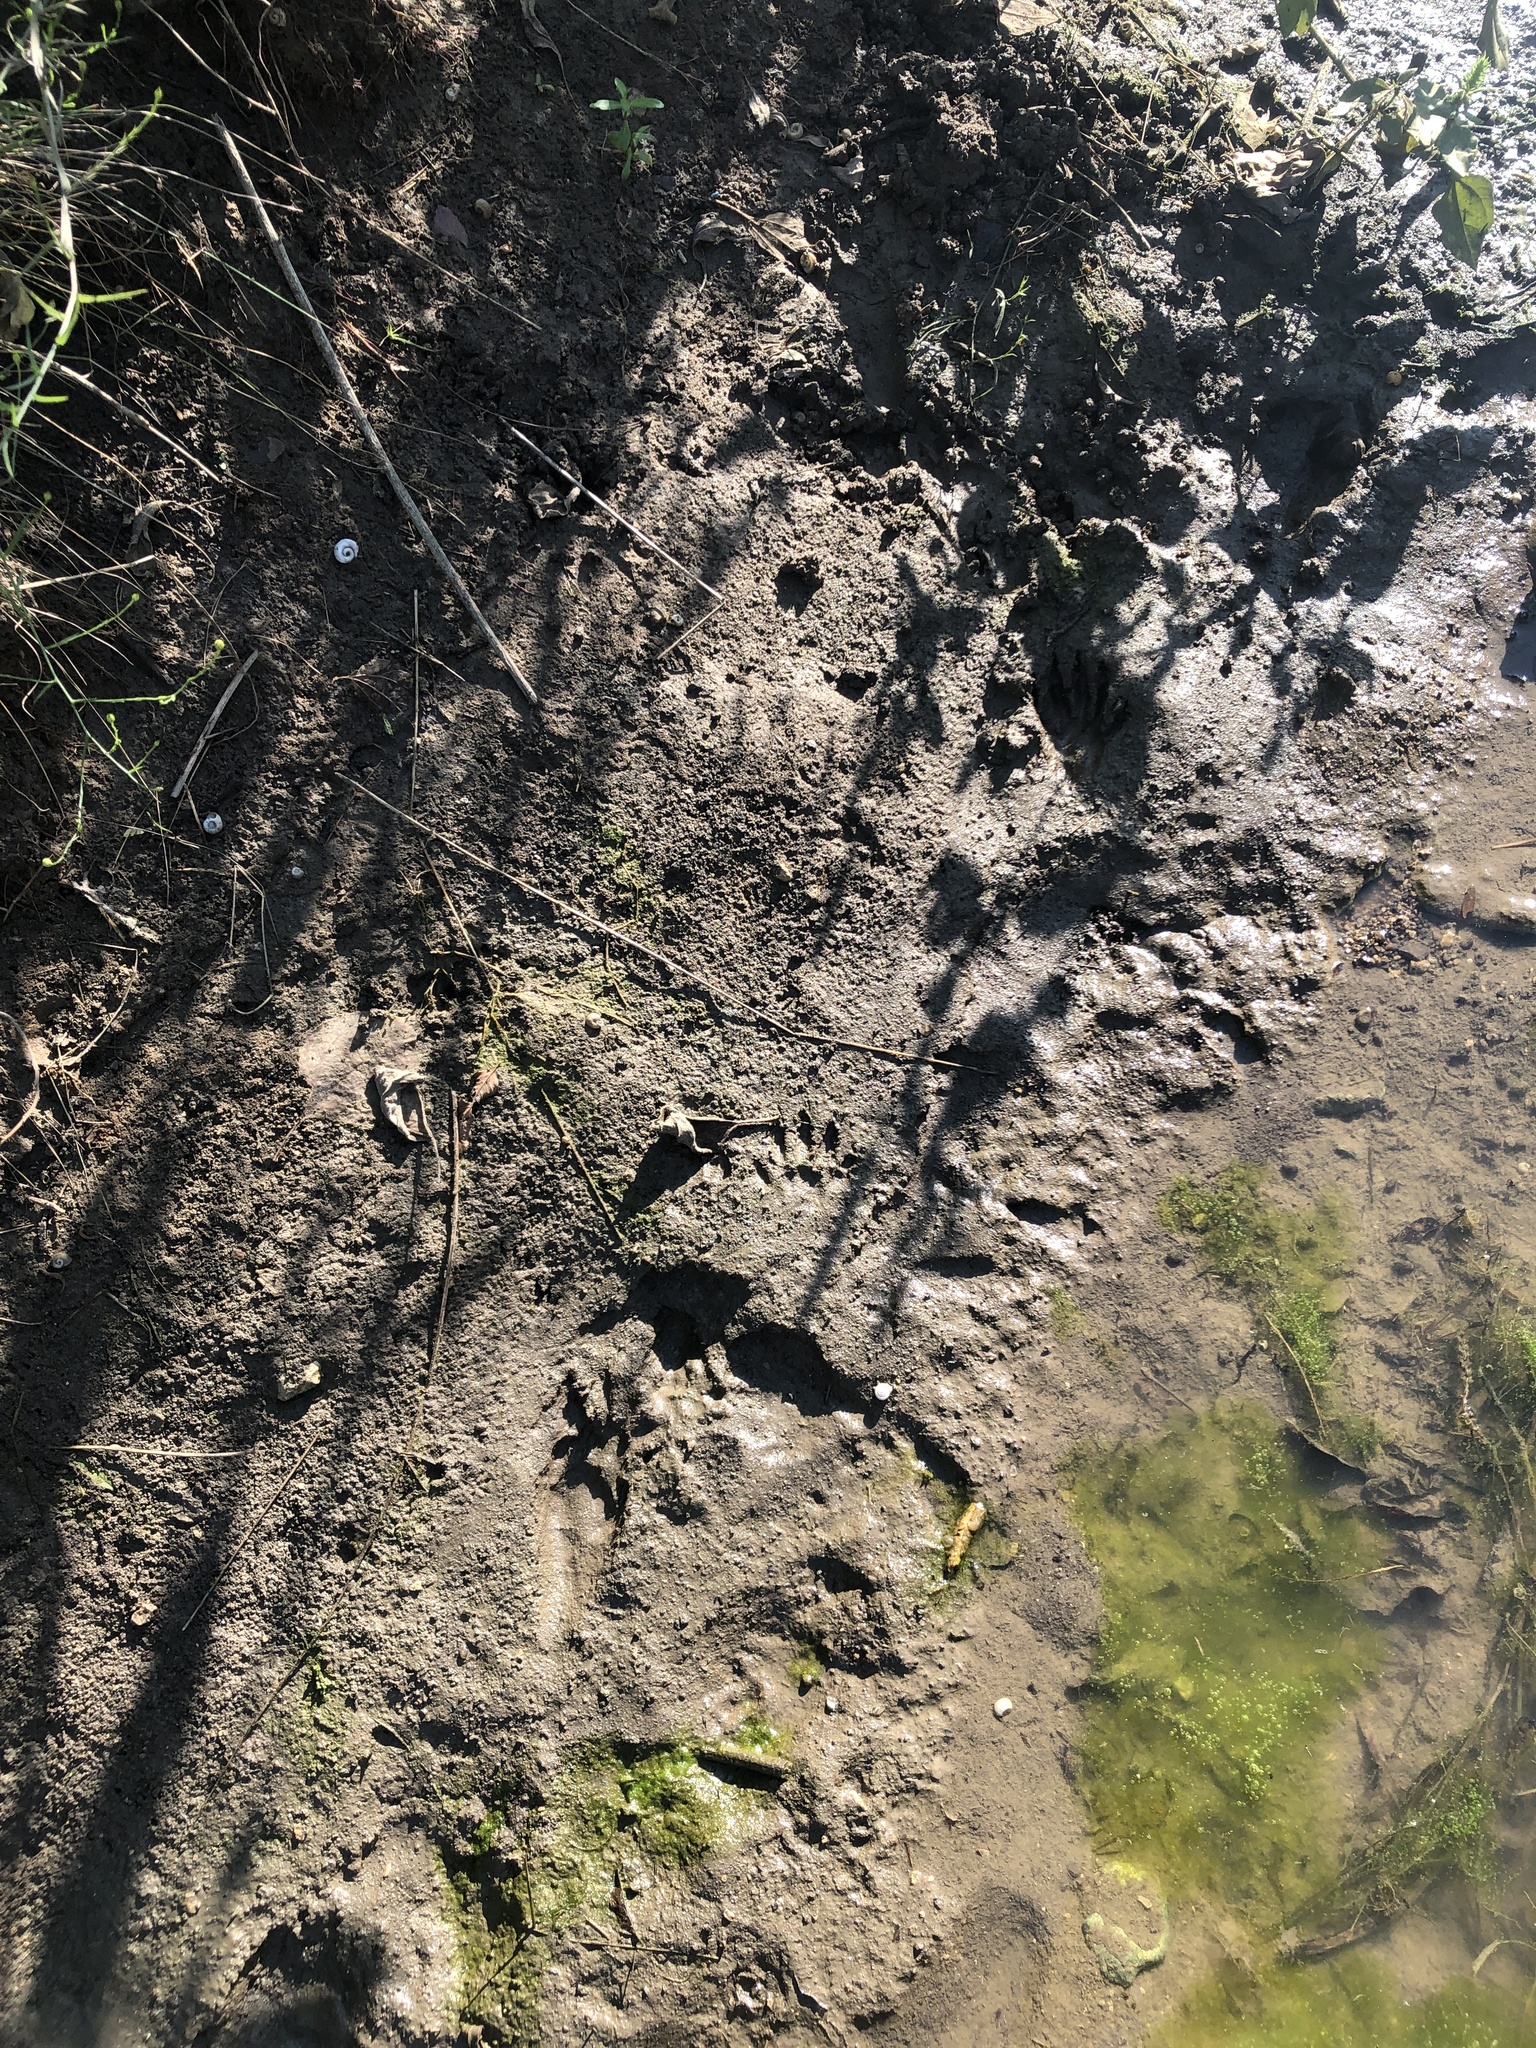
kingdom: Animalia
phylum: Chordata
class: Mammalia
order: Carnivora
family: Procyonidae
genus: Procyon
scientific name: Procyon lotor
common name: Raccoon
